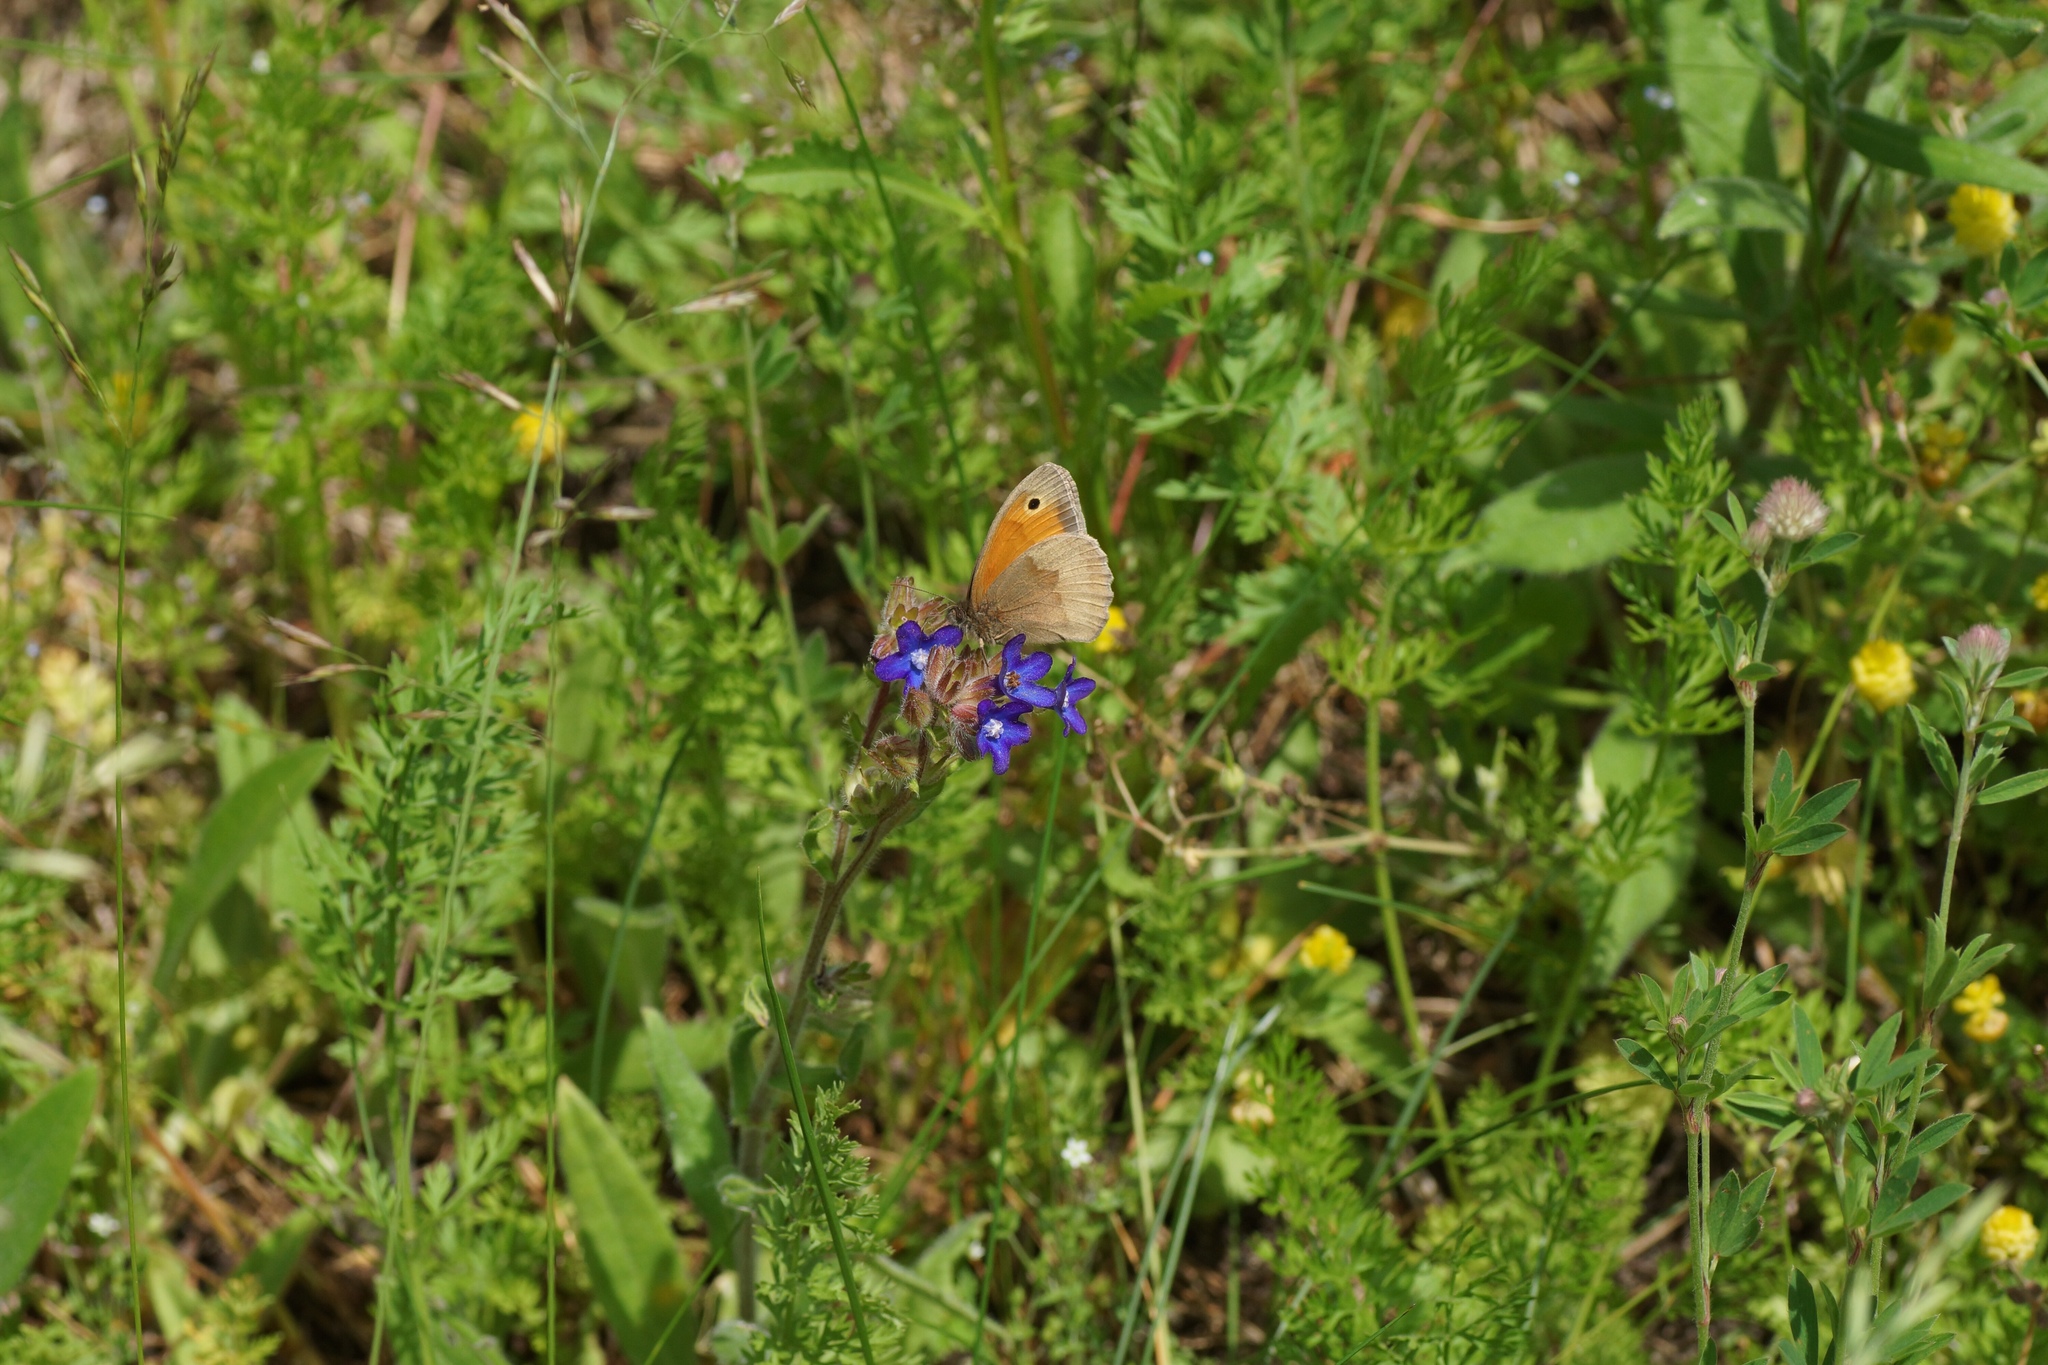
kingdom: Animalia
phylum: Arthropoda
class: Insecta
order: Lepidoptera
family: Nymphalidae
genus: Maniola
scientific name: Maniola jurtina
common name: Meadow brown
